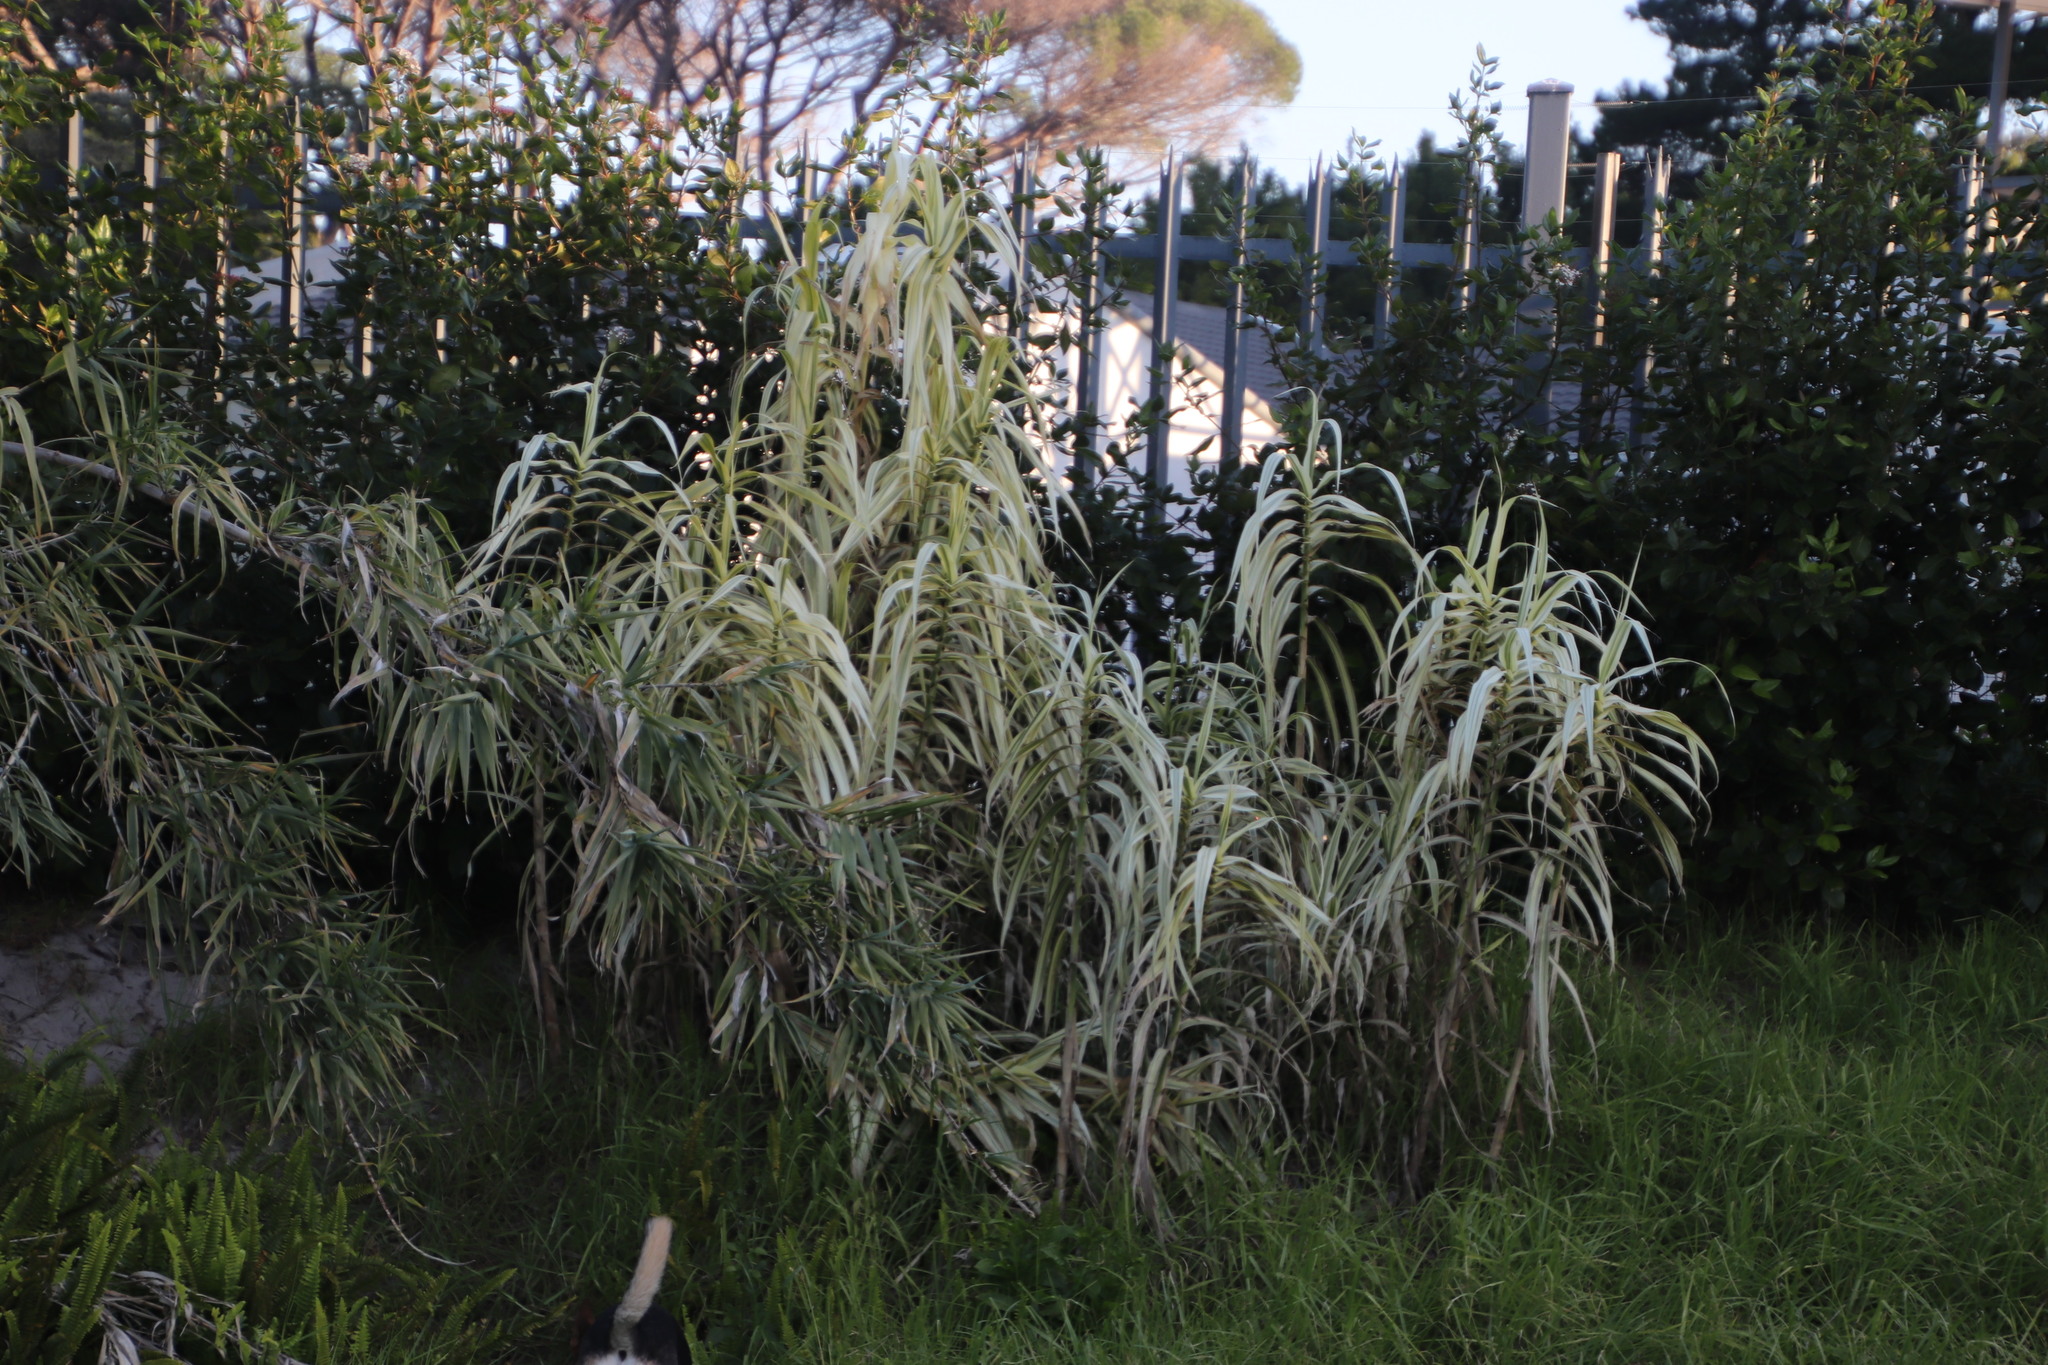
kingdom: Plantae
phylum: Tracheophyta
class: Liliopsida
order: Poales
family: Poaceae
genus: Arundo
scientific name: Arundo donax
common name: Giant reed
